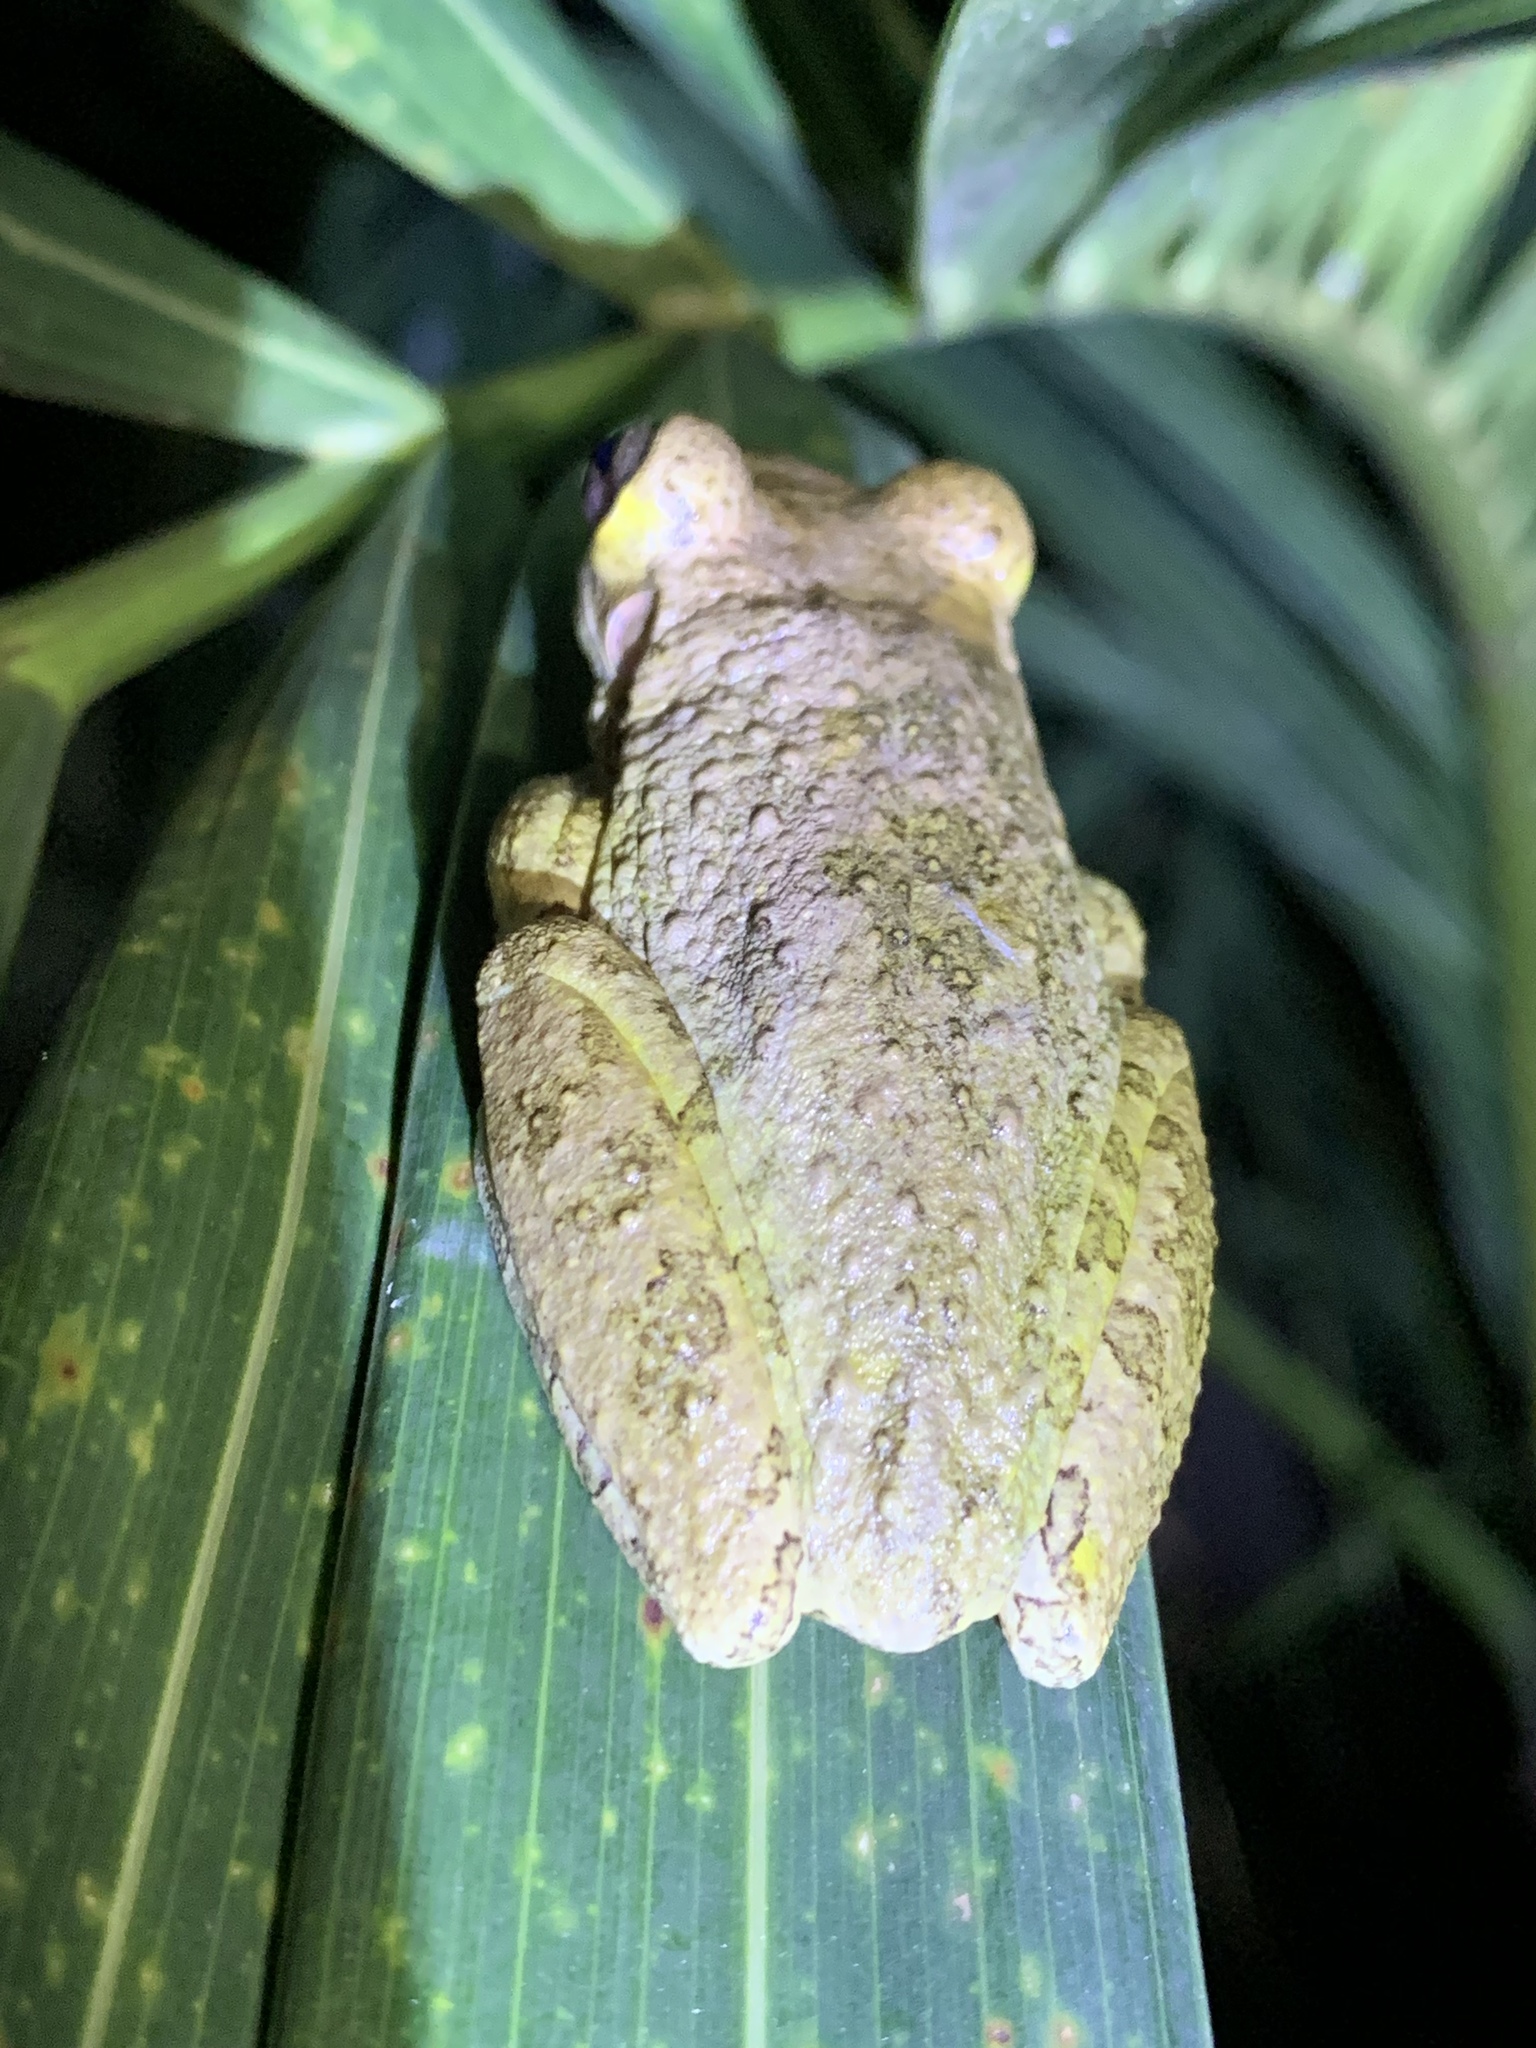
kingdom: Animalia
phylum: Chordata
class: Amphibia
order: Anura
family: Hylidae
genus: Osteopilus
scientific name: Osteopilus septentrionalis
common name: Cuban treefrog
